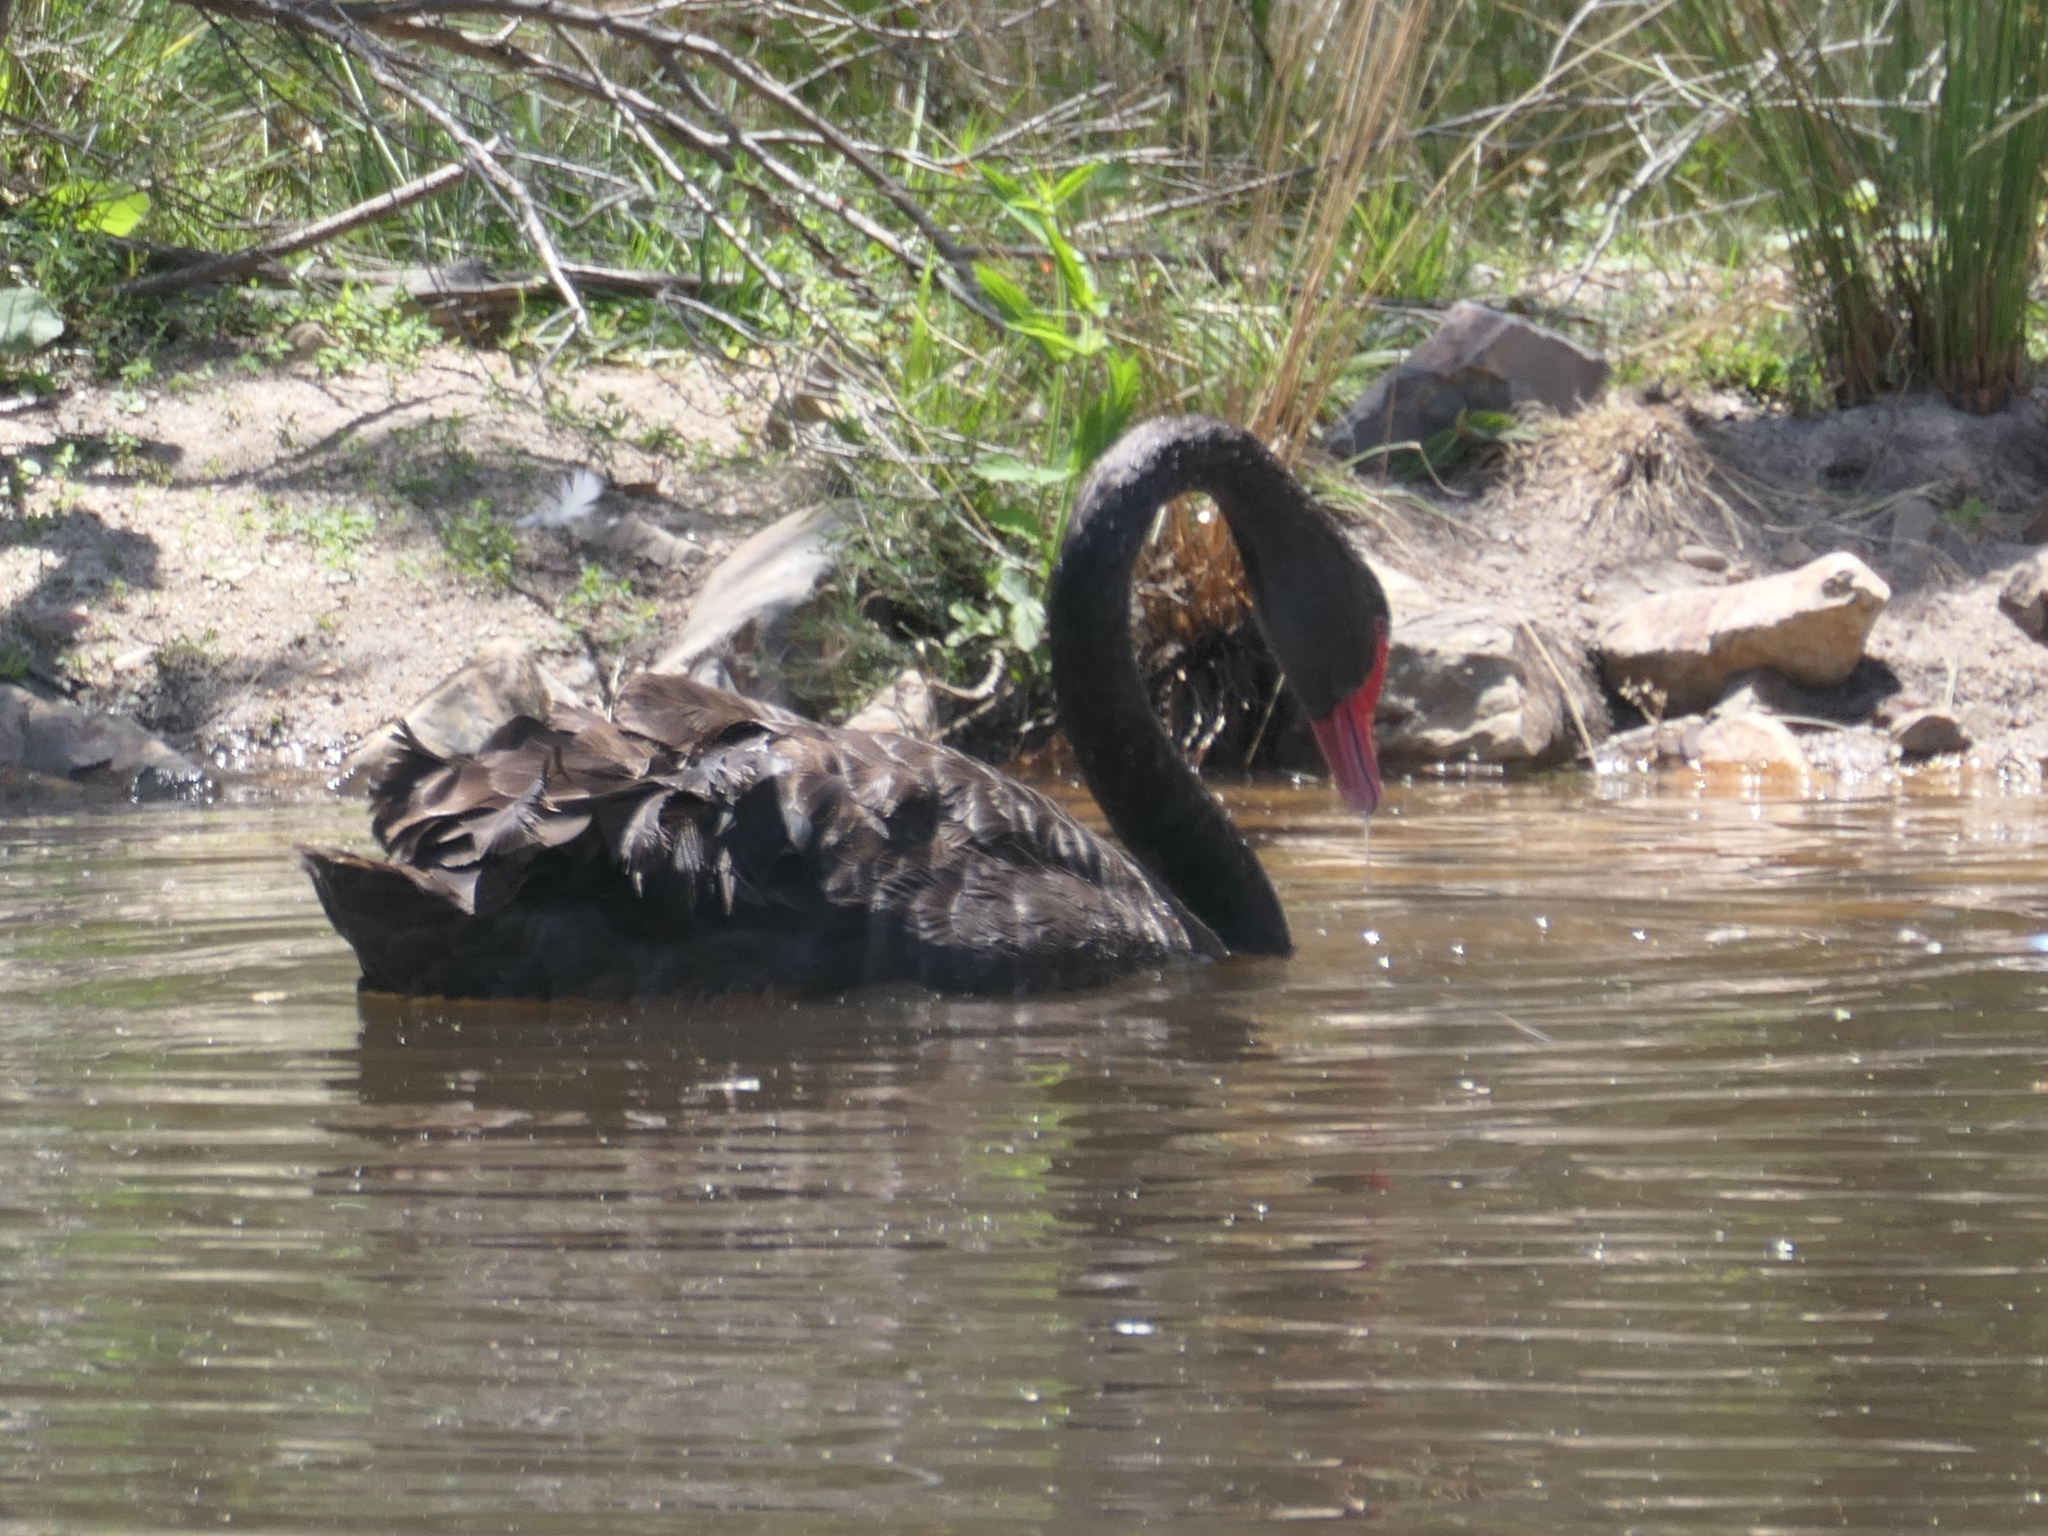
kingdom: Animalia
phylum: Chordata
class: Aves
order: Anseriformes
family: Anatidae
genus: Cygnus
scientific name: Cygnus atratus
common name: Black swan
